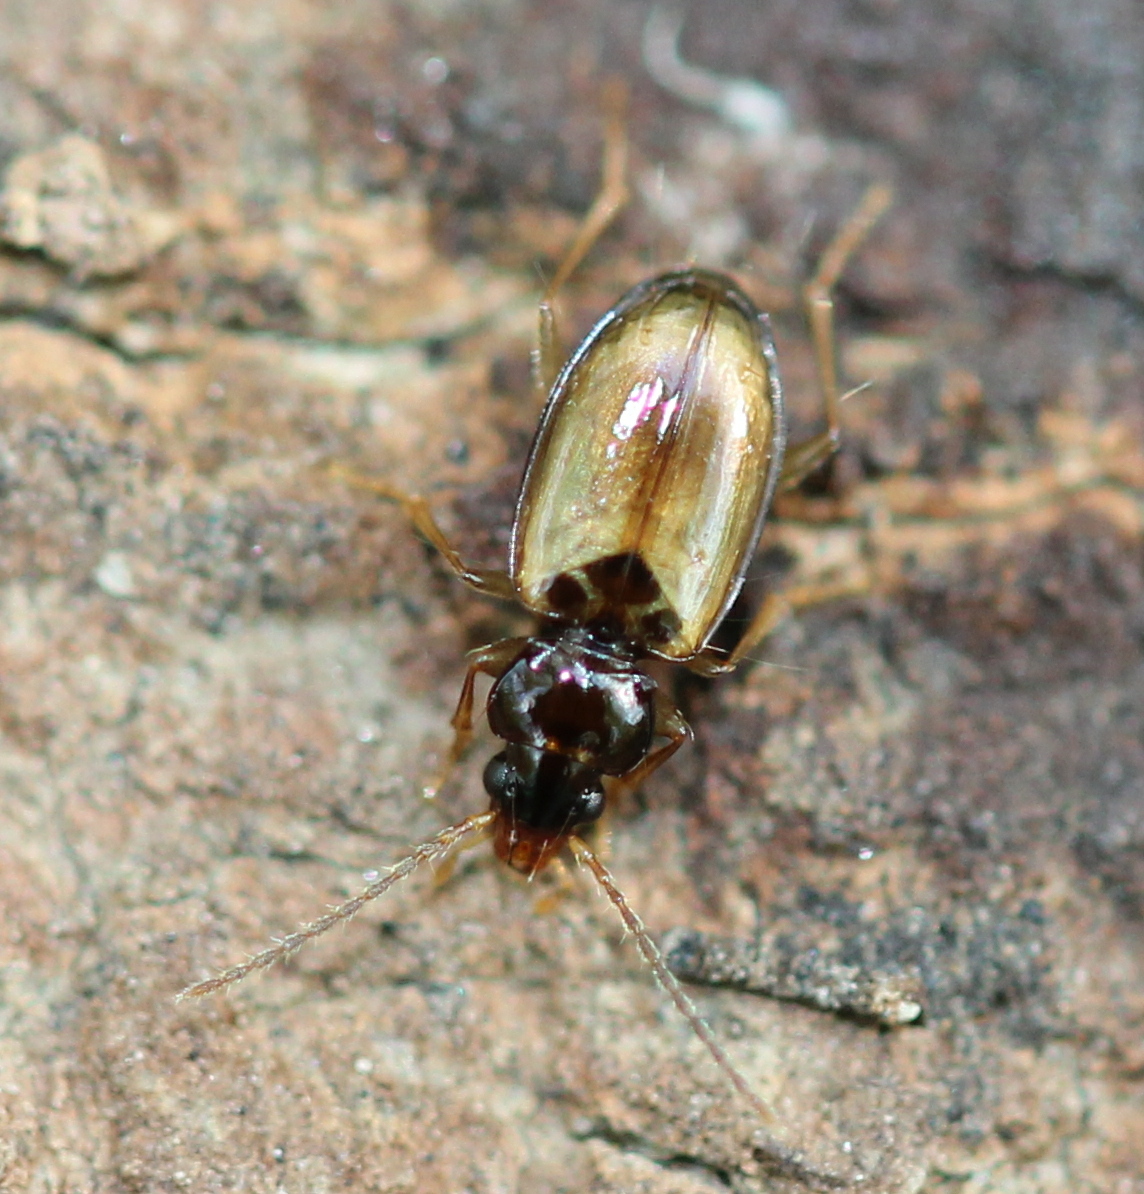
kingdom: Animalia
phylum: Arthropoda
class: Insecta
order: Coleoptera
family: Carabidae
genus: Tachys
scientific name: Tachys proximus
